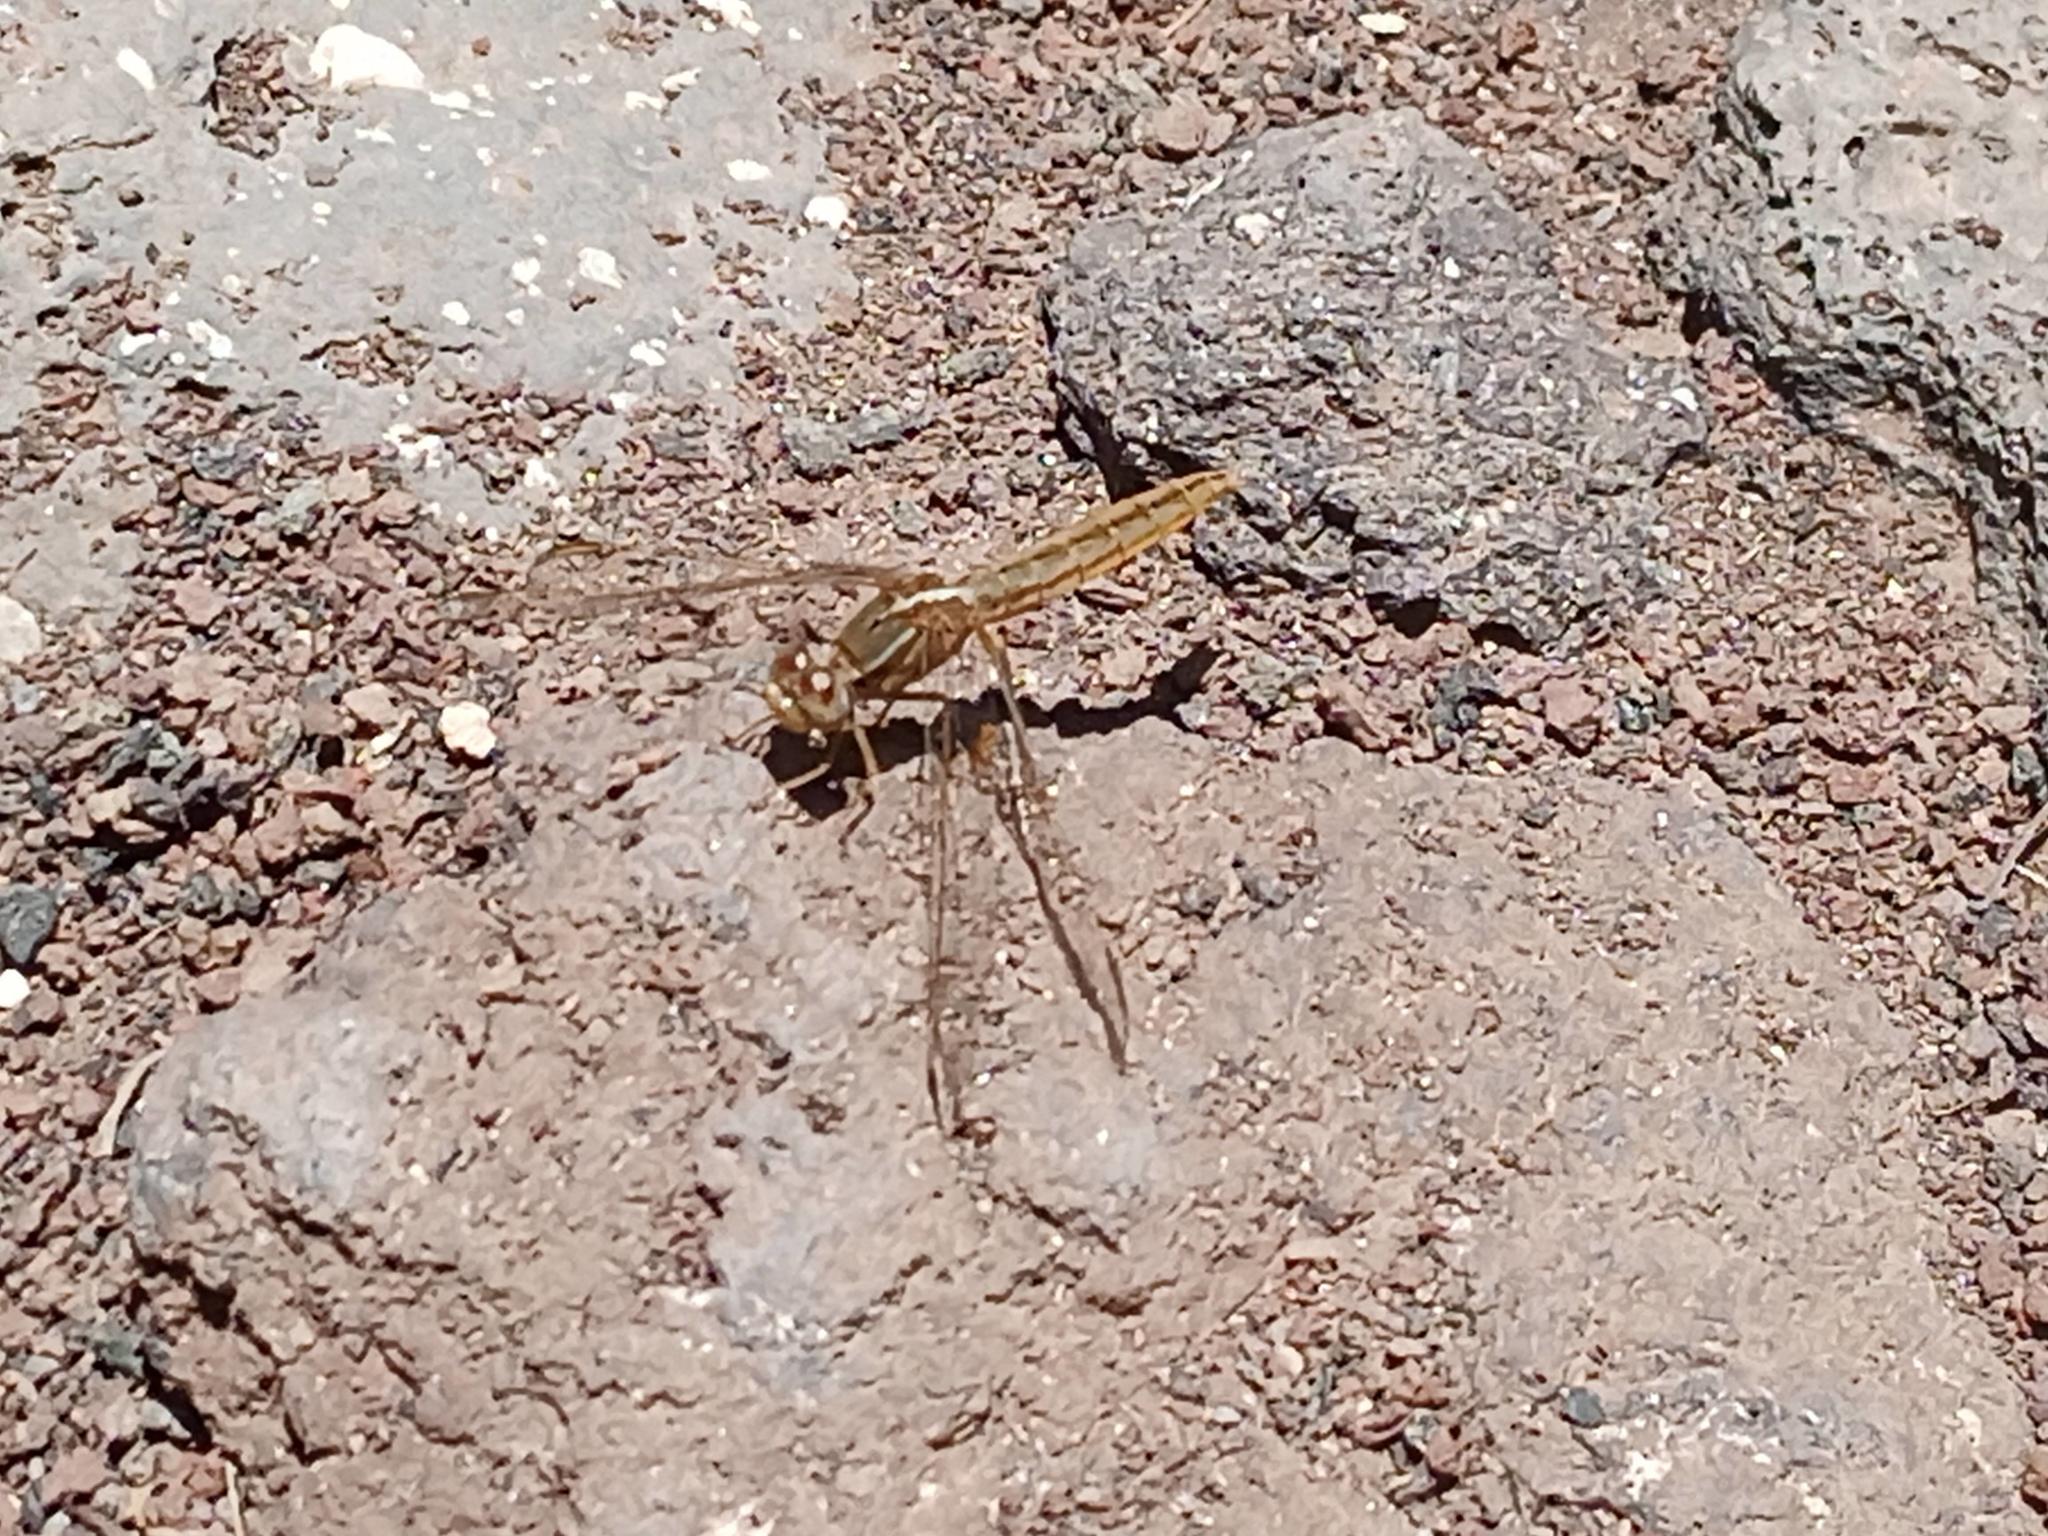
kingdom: Animalia
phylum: Arthropoda
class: Insecta
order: Odonata
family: Libellulidae
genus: Crocothemis
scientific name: Crocothemis erythraea
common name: Scarlet dragonfly
